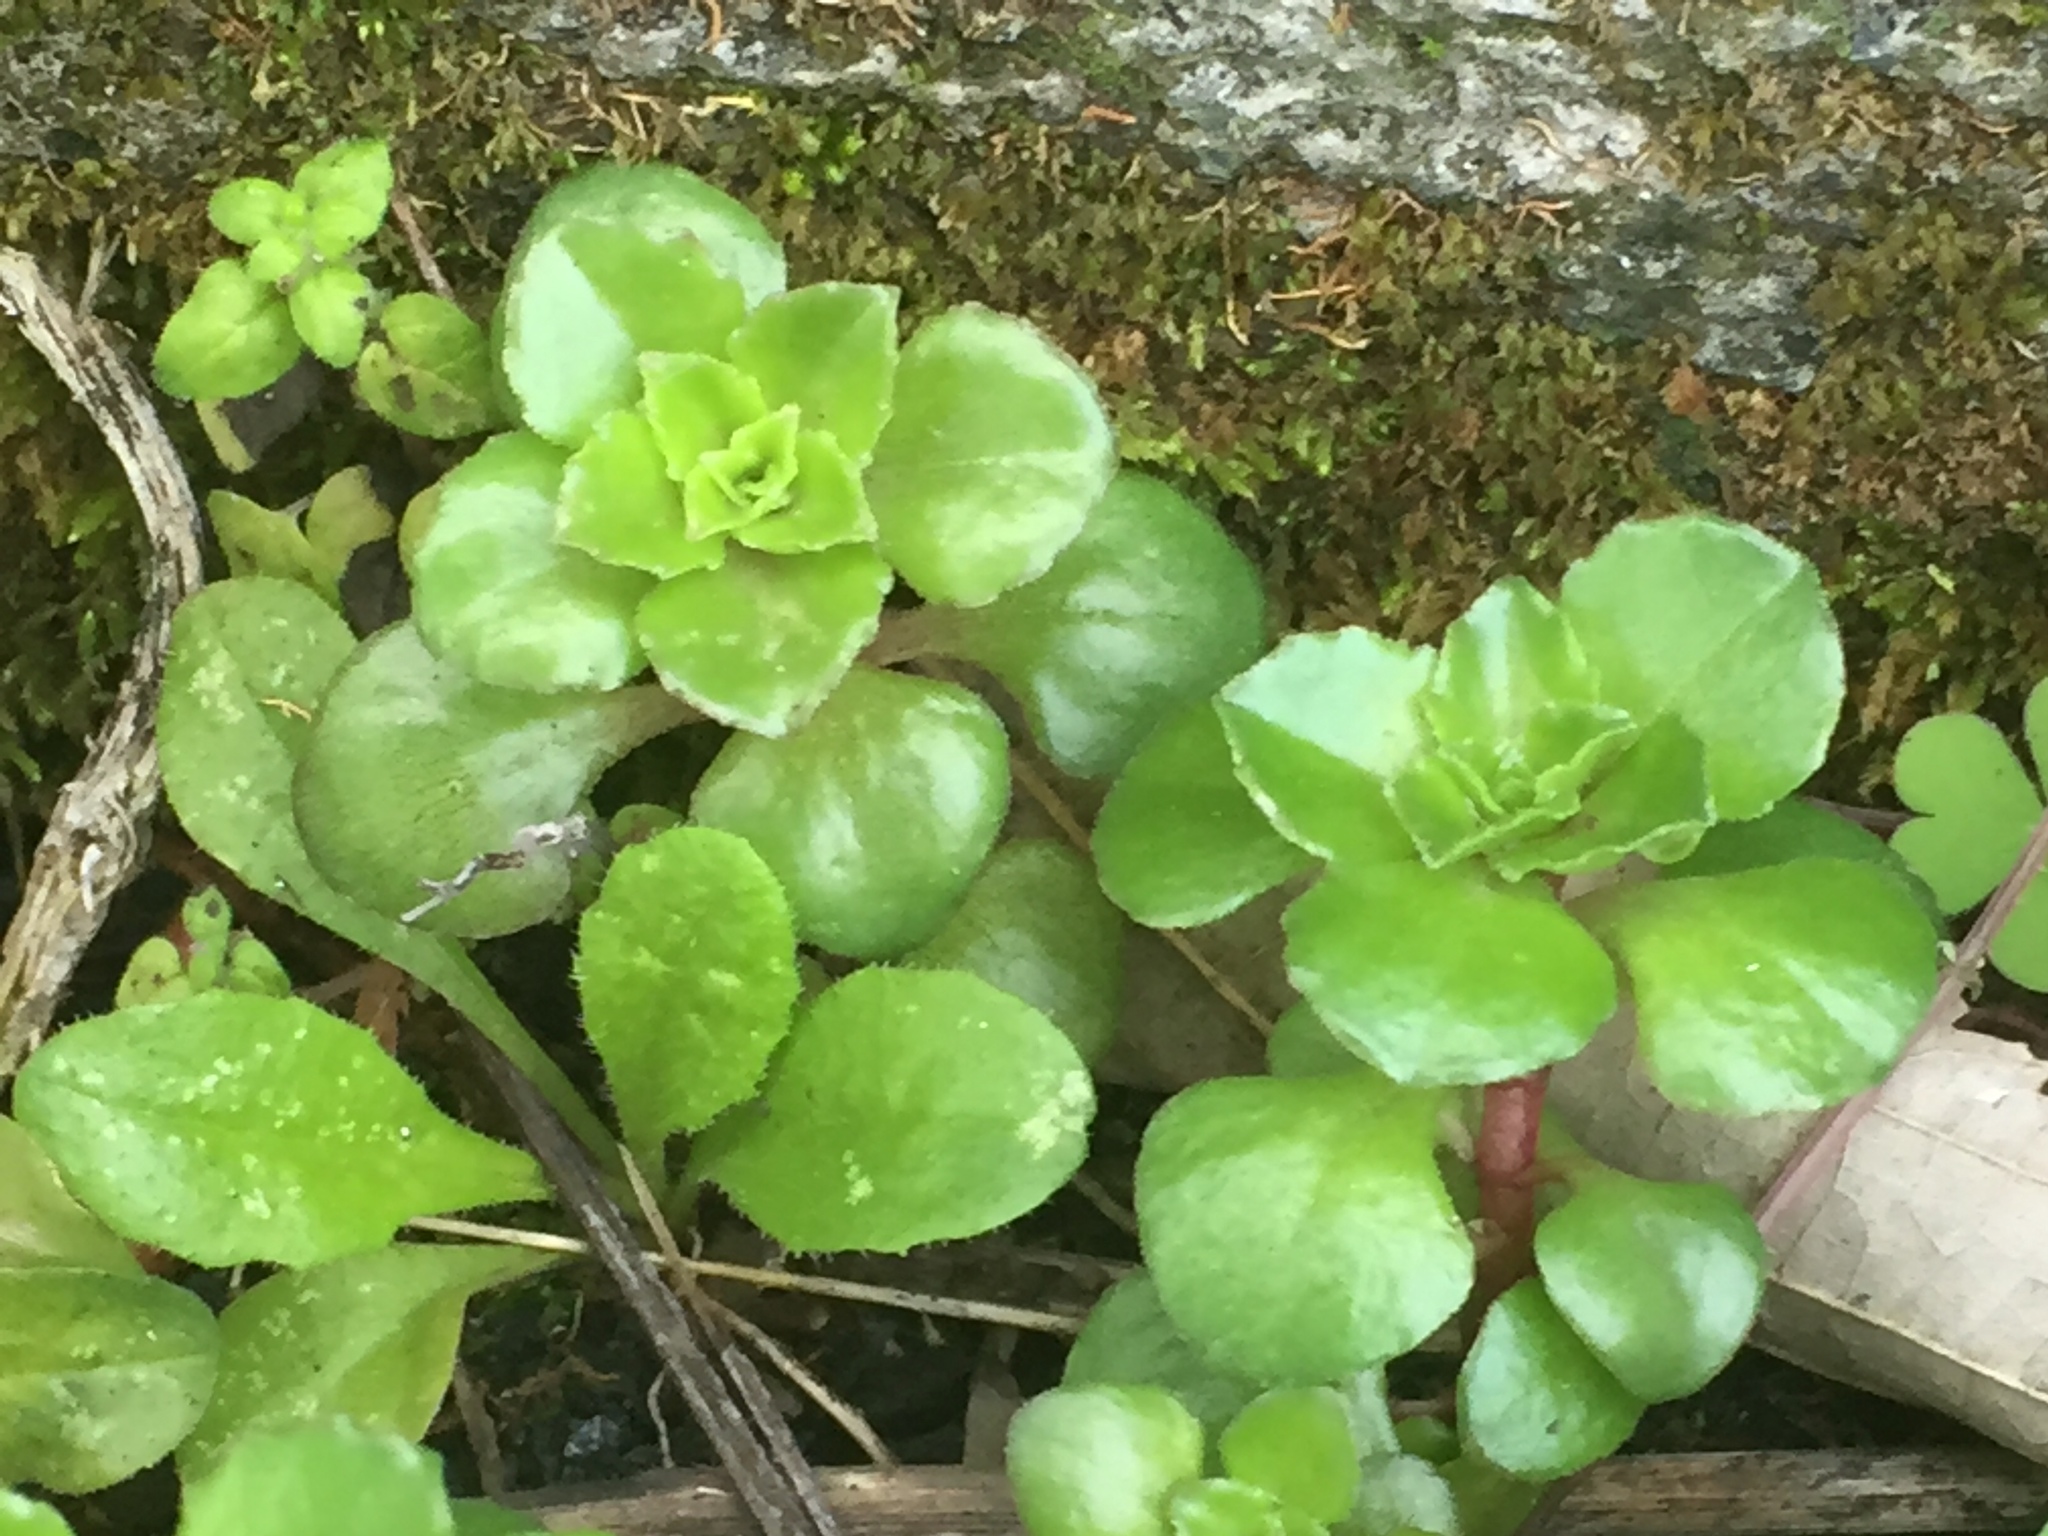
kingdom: Plantae
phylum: Tracheophyta
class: Magnoliopsida
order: Saxifragales
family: Crassulaceae
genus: Phedimus
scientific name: Phedimus stellatus
